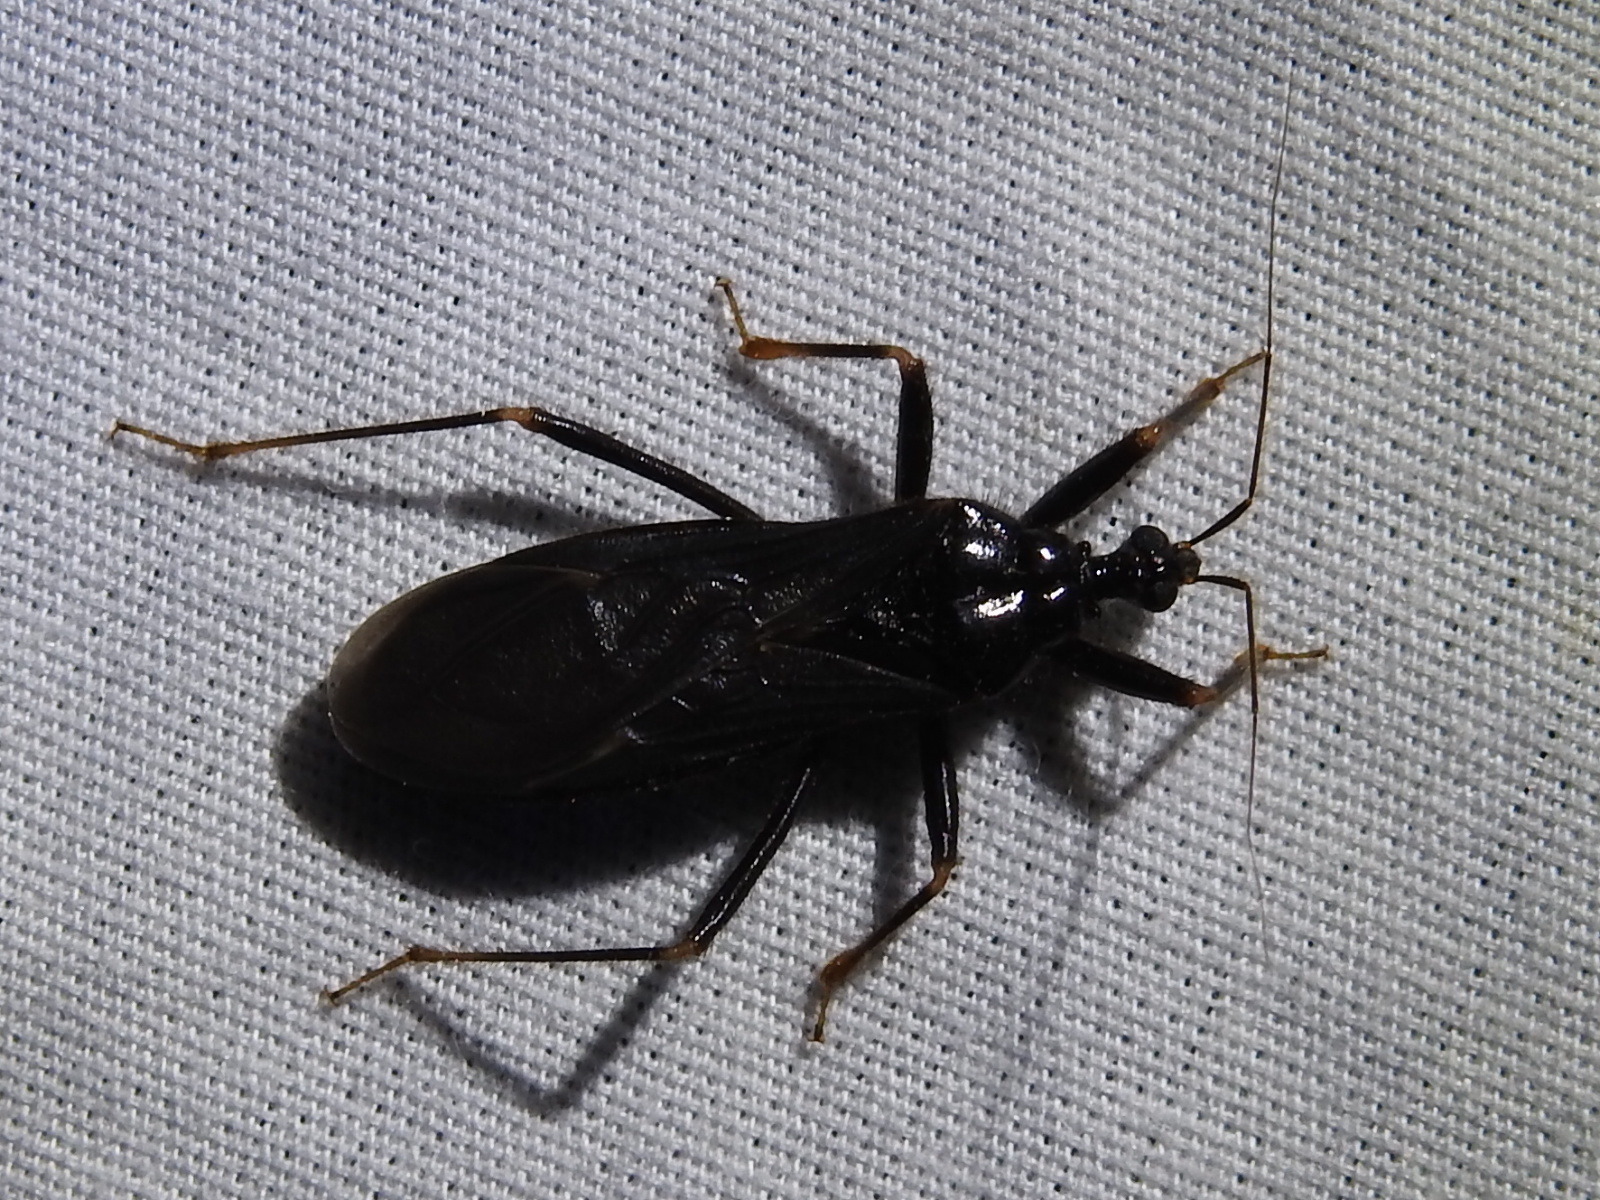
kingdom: Animalia
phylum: Arthropoda
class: Insecta
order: Hemiptera
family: Reduviidae
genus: Reduvius
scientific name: Reduvius personatus
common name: Masked hunter
